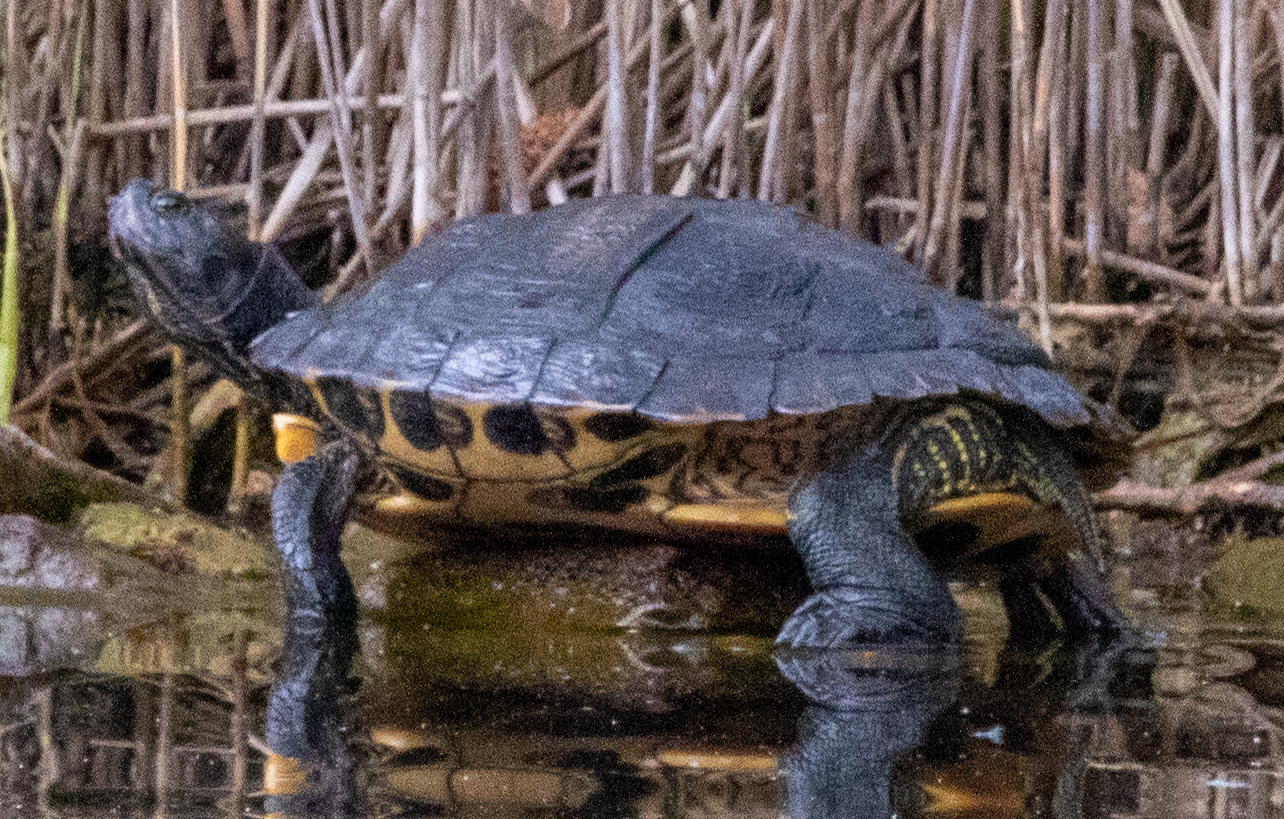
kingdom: Animalia
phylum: Chordata
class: Testudines
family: Emydidae
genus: Trachemys
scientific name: Trachemys scripta
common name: Slider
